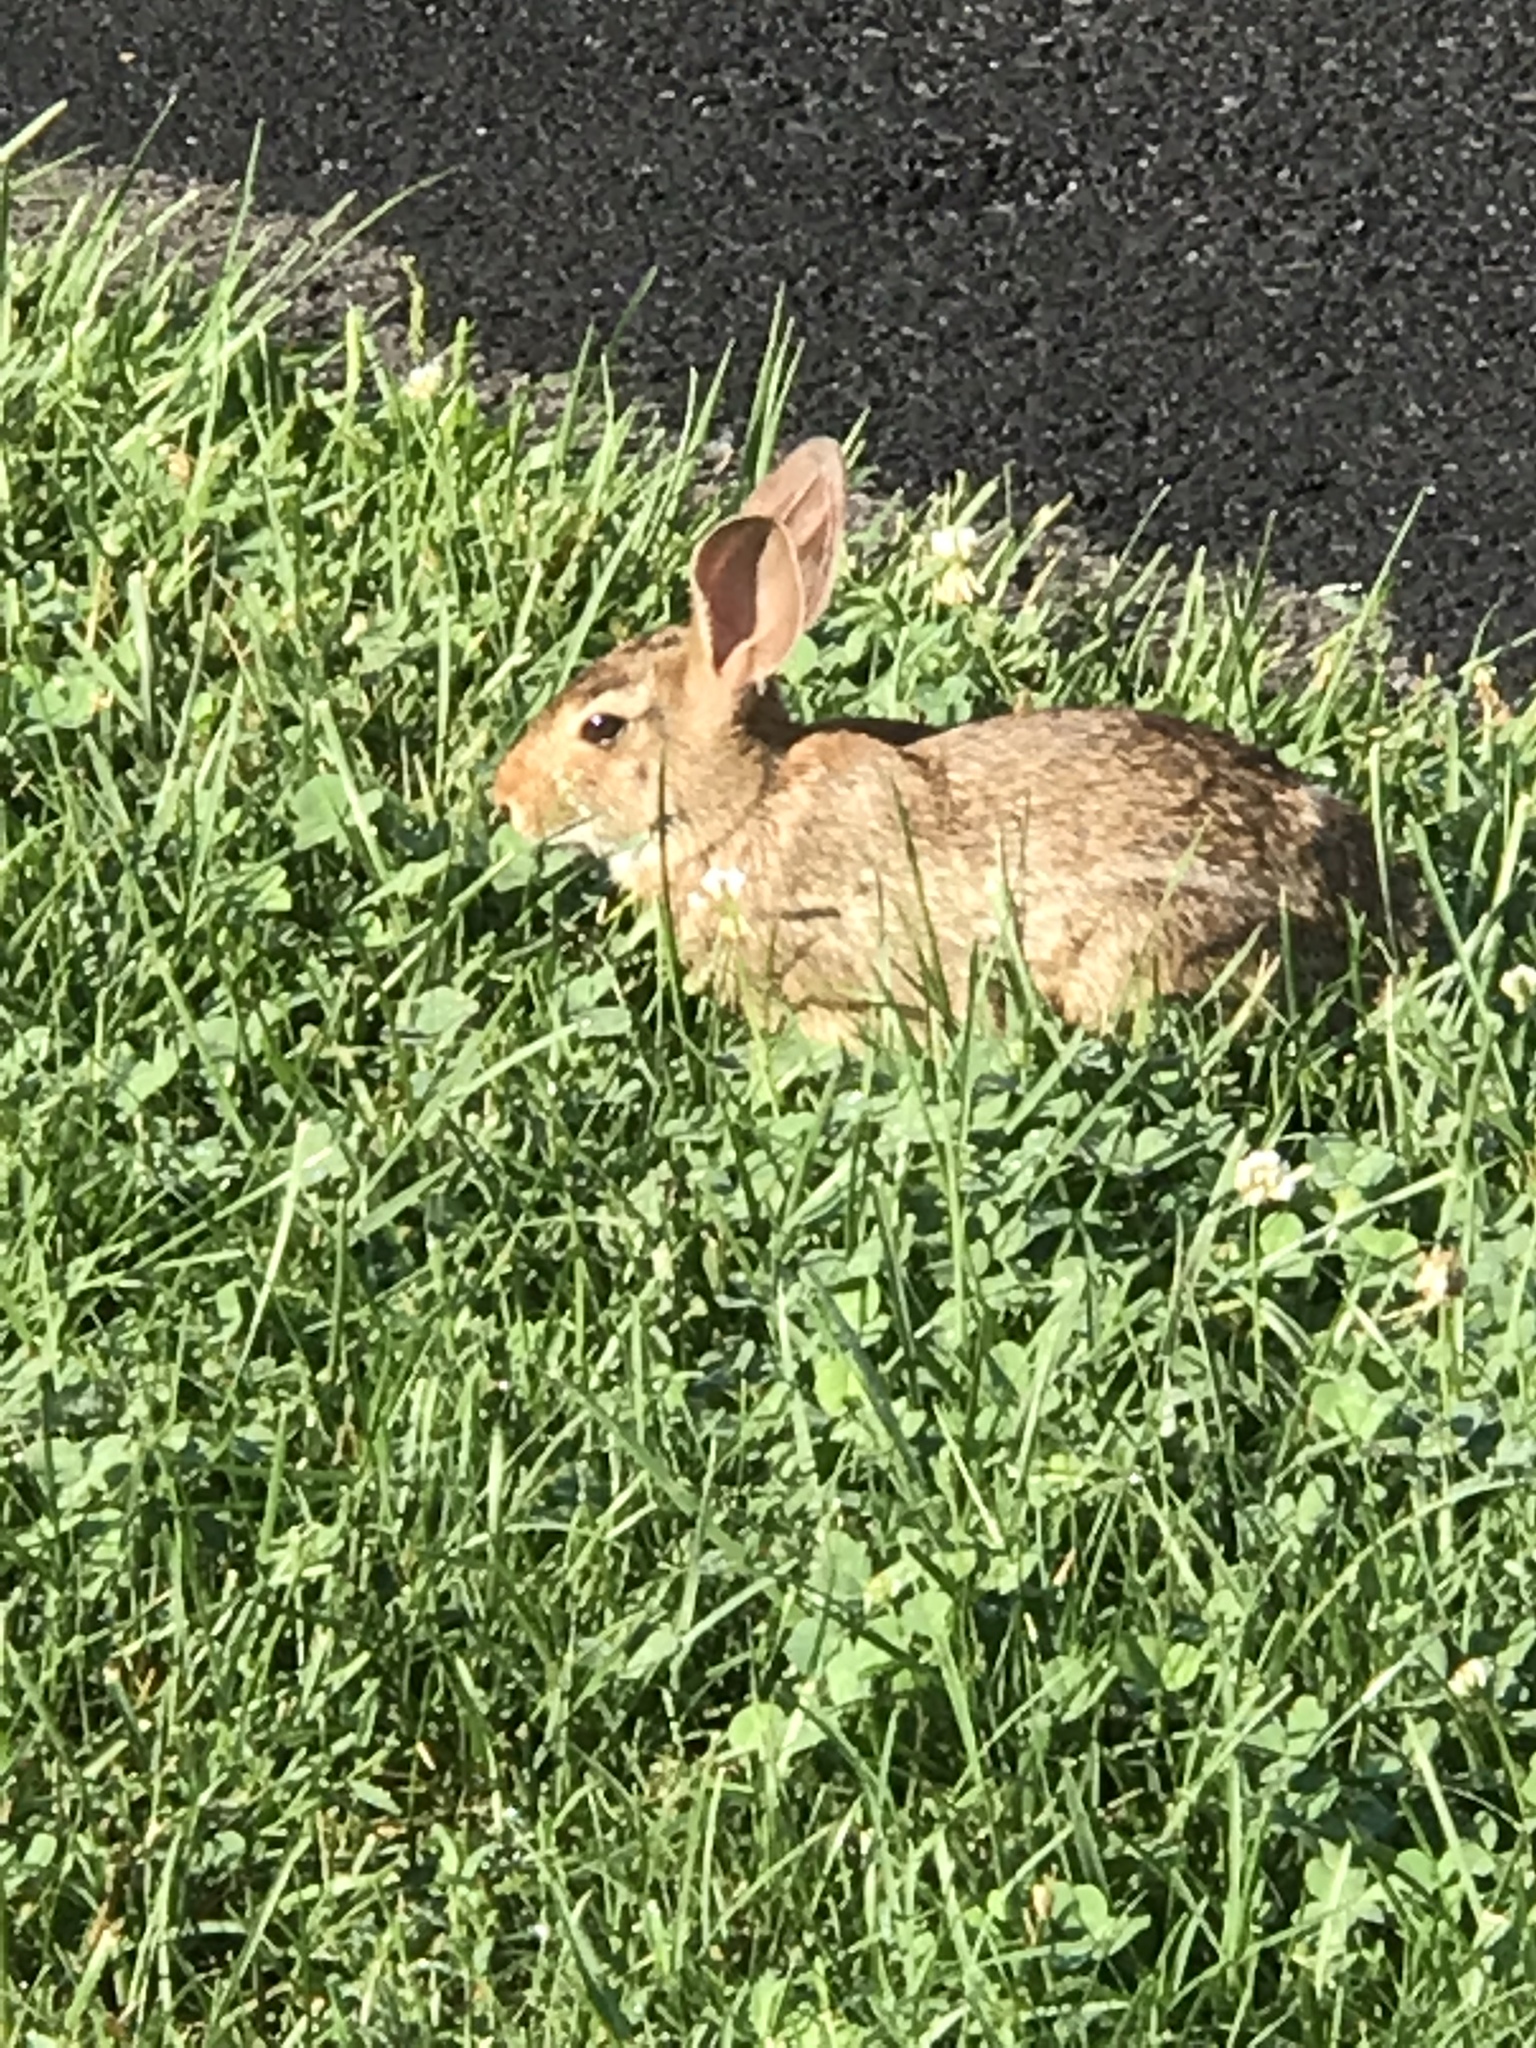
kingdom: Animalia
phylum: Chordata
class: Mammalia
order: Lagomorpha
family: Leporidae
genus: Sylvilagus
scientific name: Sylvilagus floridanus
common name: Eastern cottontail
